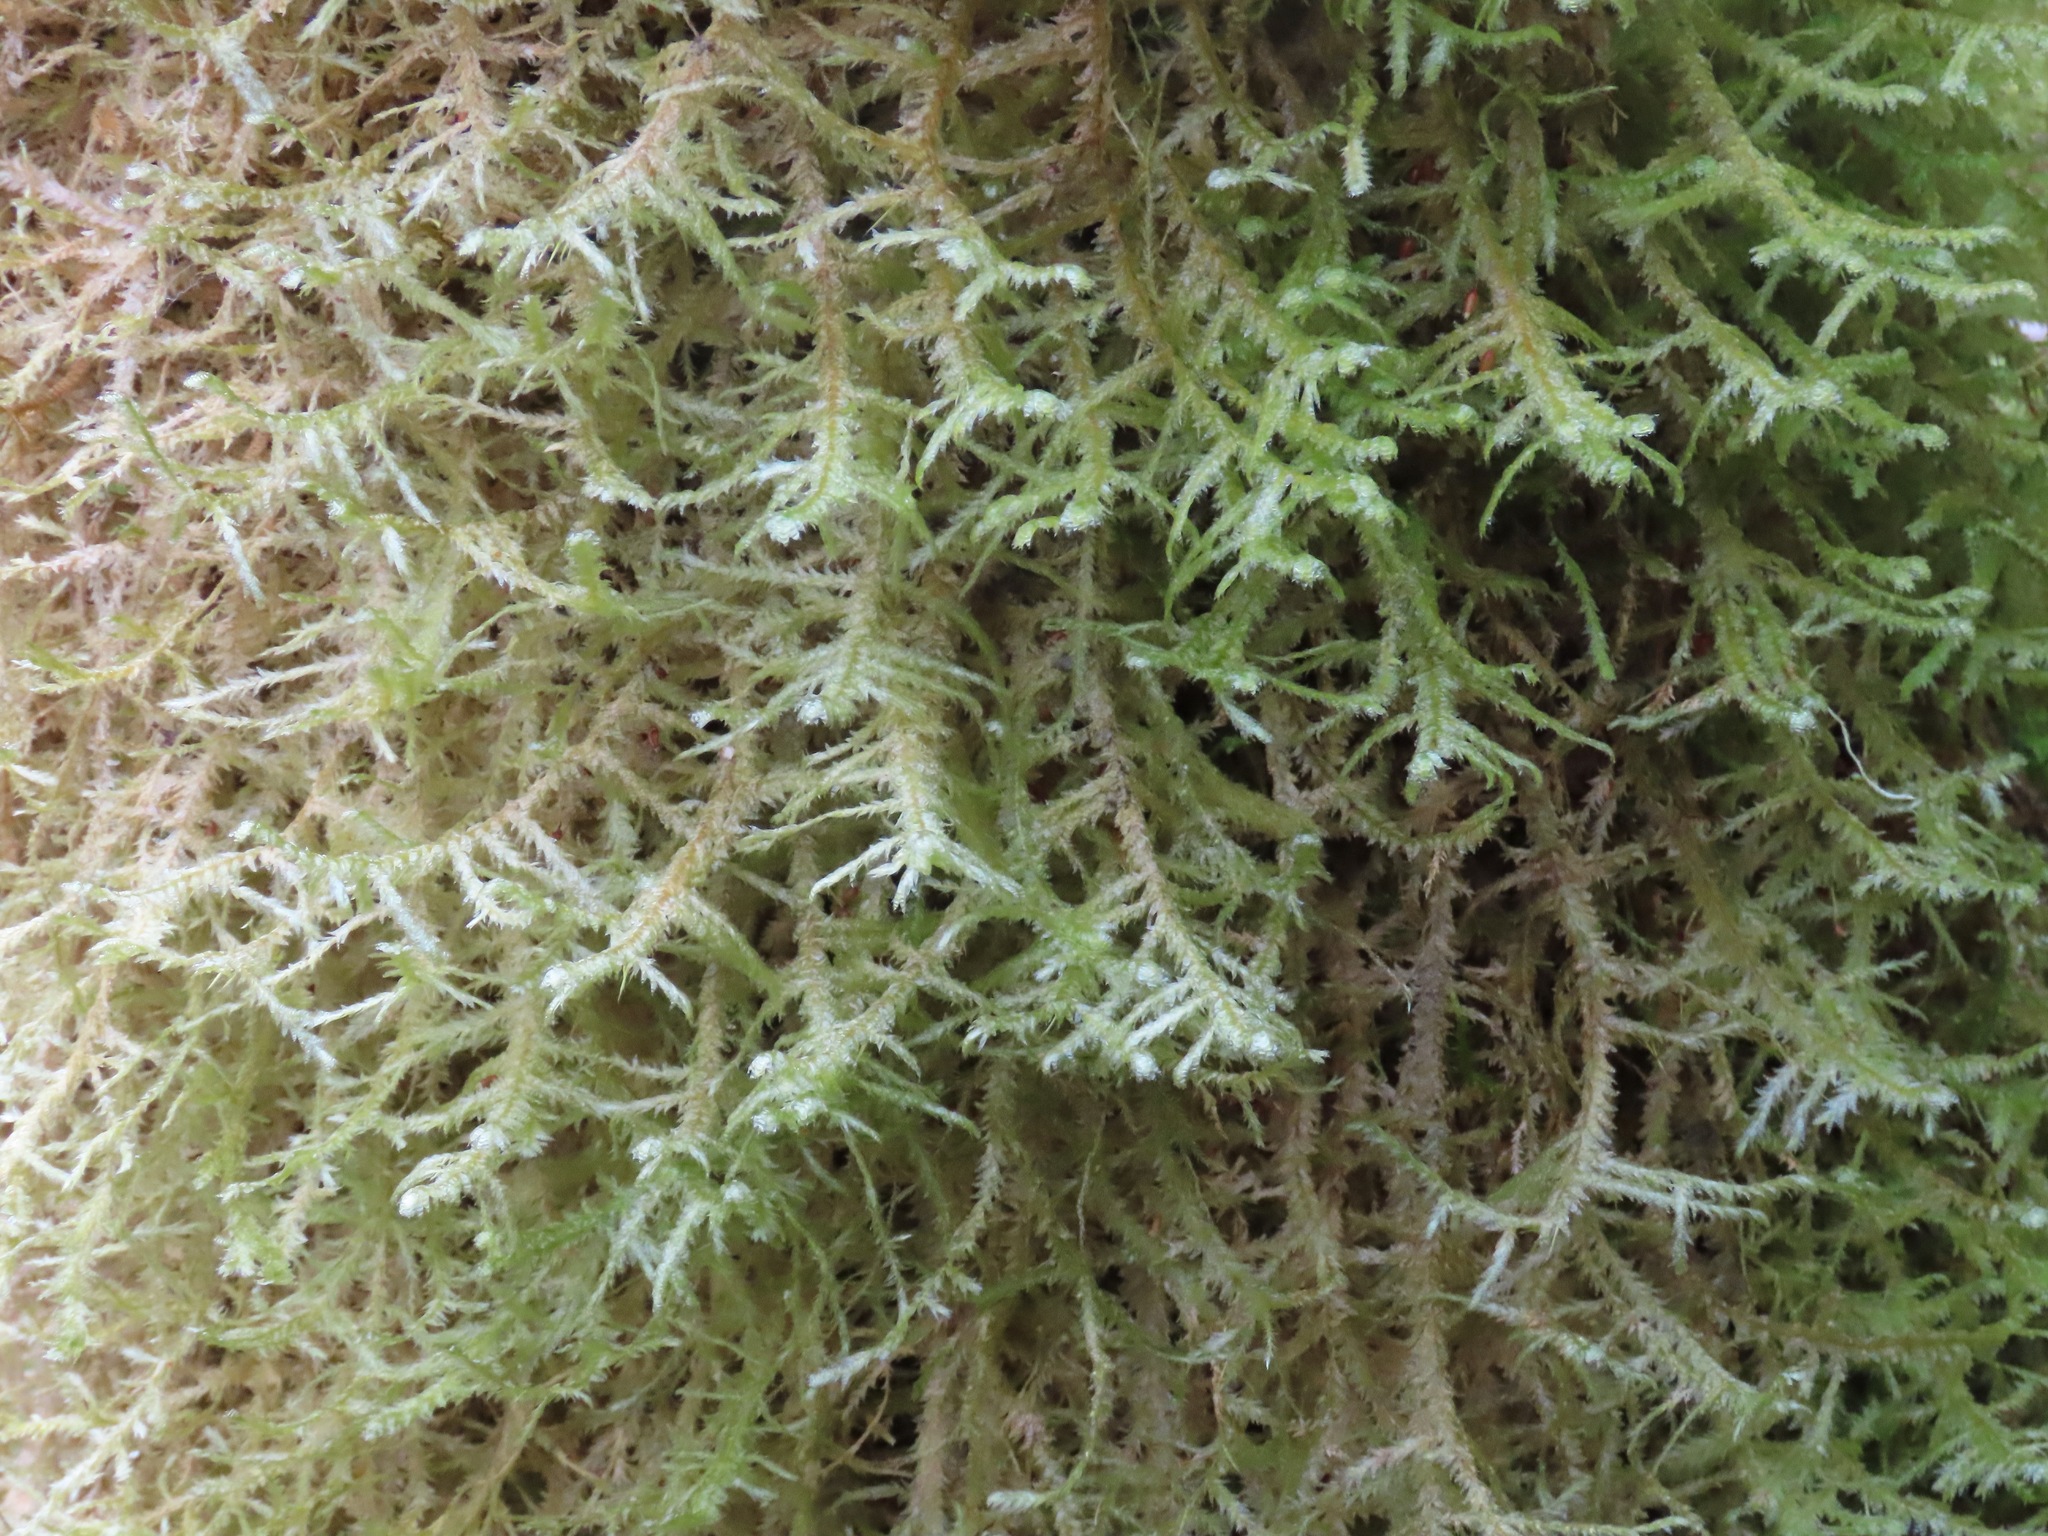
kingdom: Plantae
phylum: Bryophyta
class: Bryopsida
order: Hypnales
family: Neckeraceae
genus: Neckera
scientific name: Neckera douglasii
